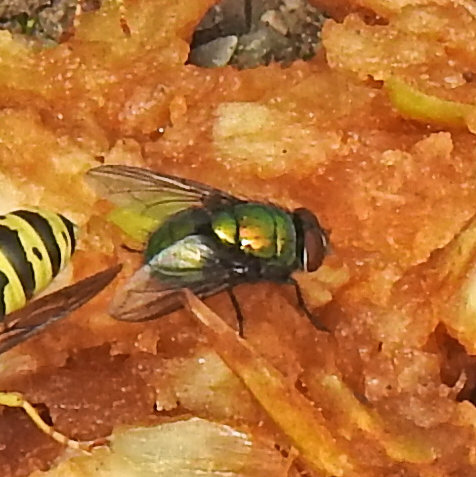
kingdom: Animalia
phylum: Arthropoda
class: Insecta
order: Diptera
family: Calliphoridae
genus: Lucilia
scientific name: Lucilia sericata
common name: Blow fly
